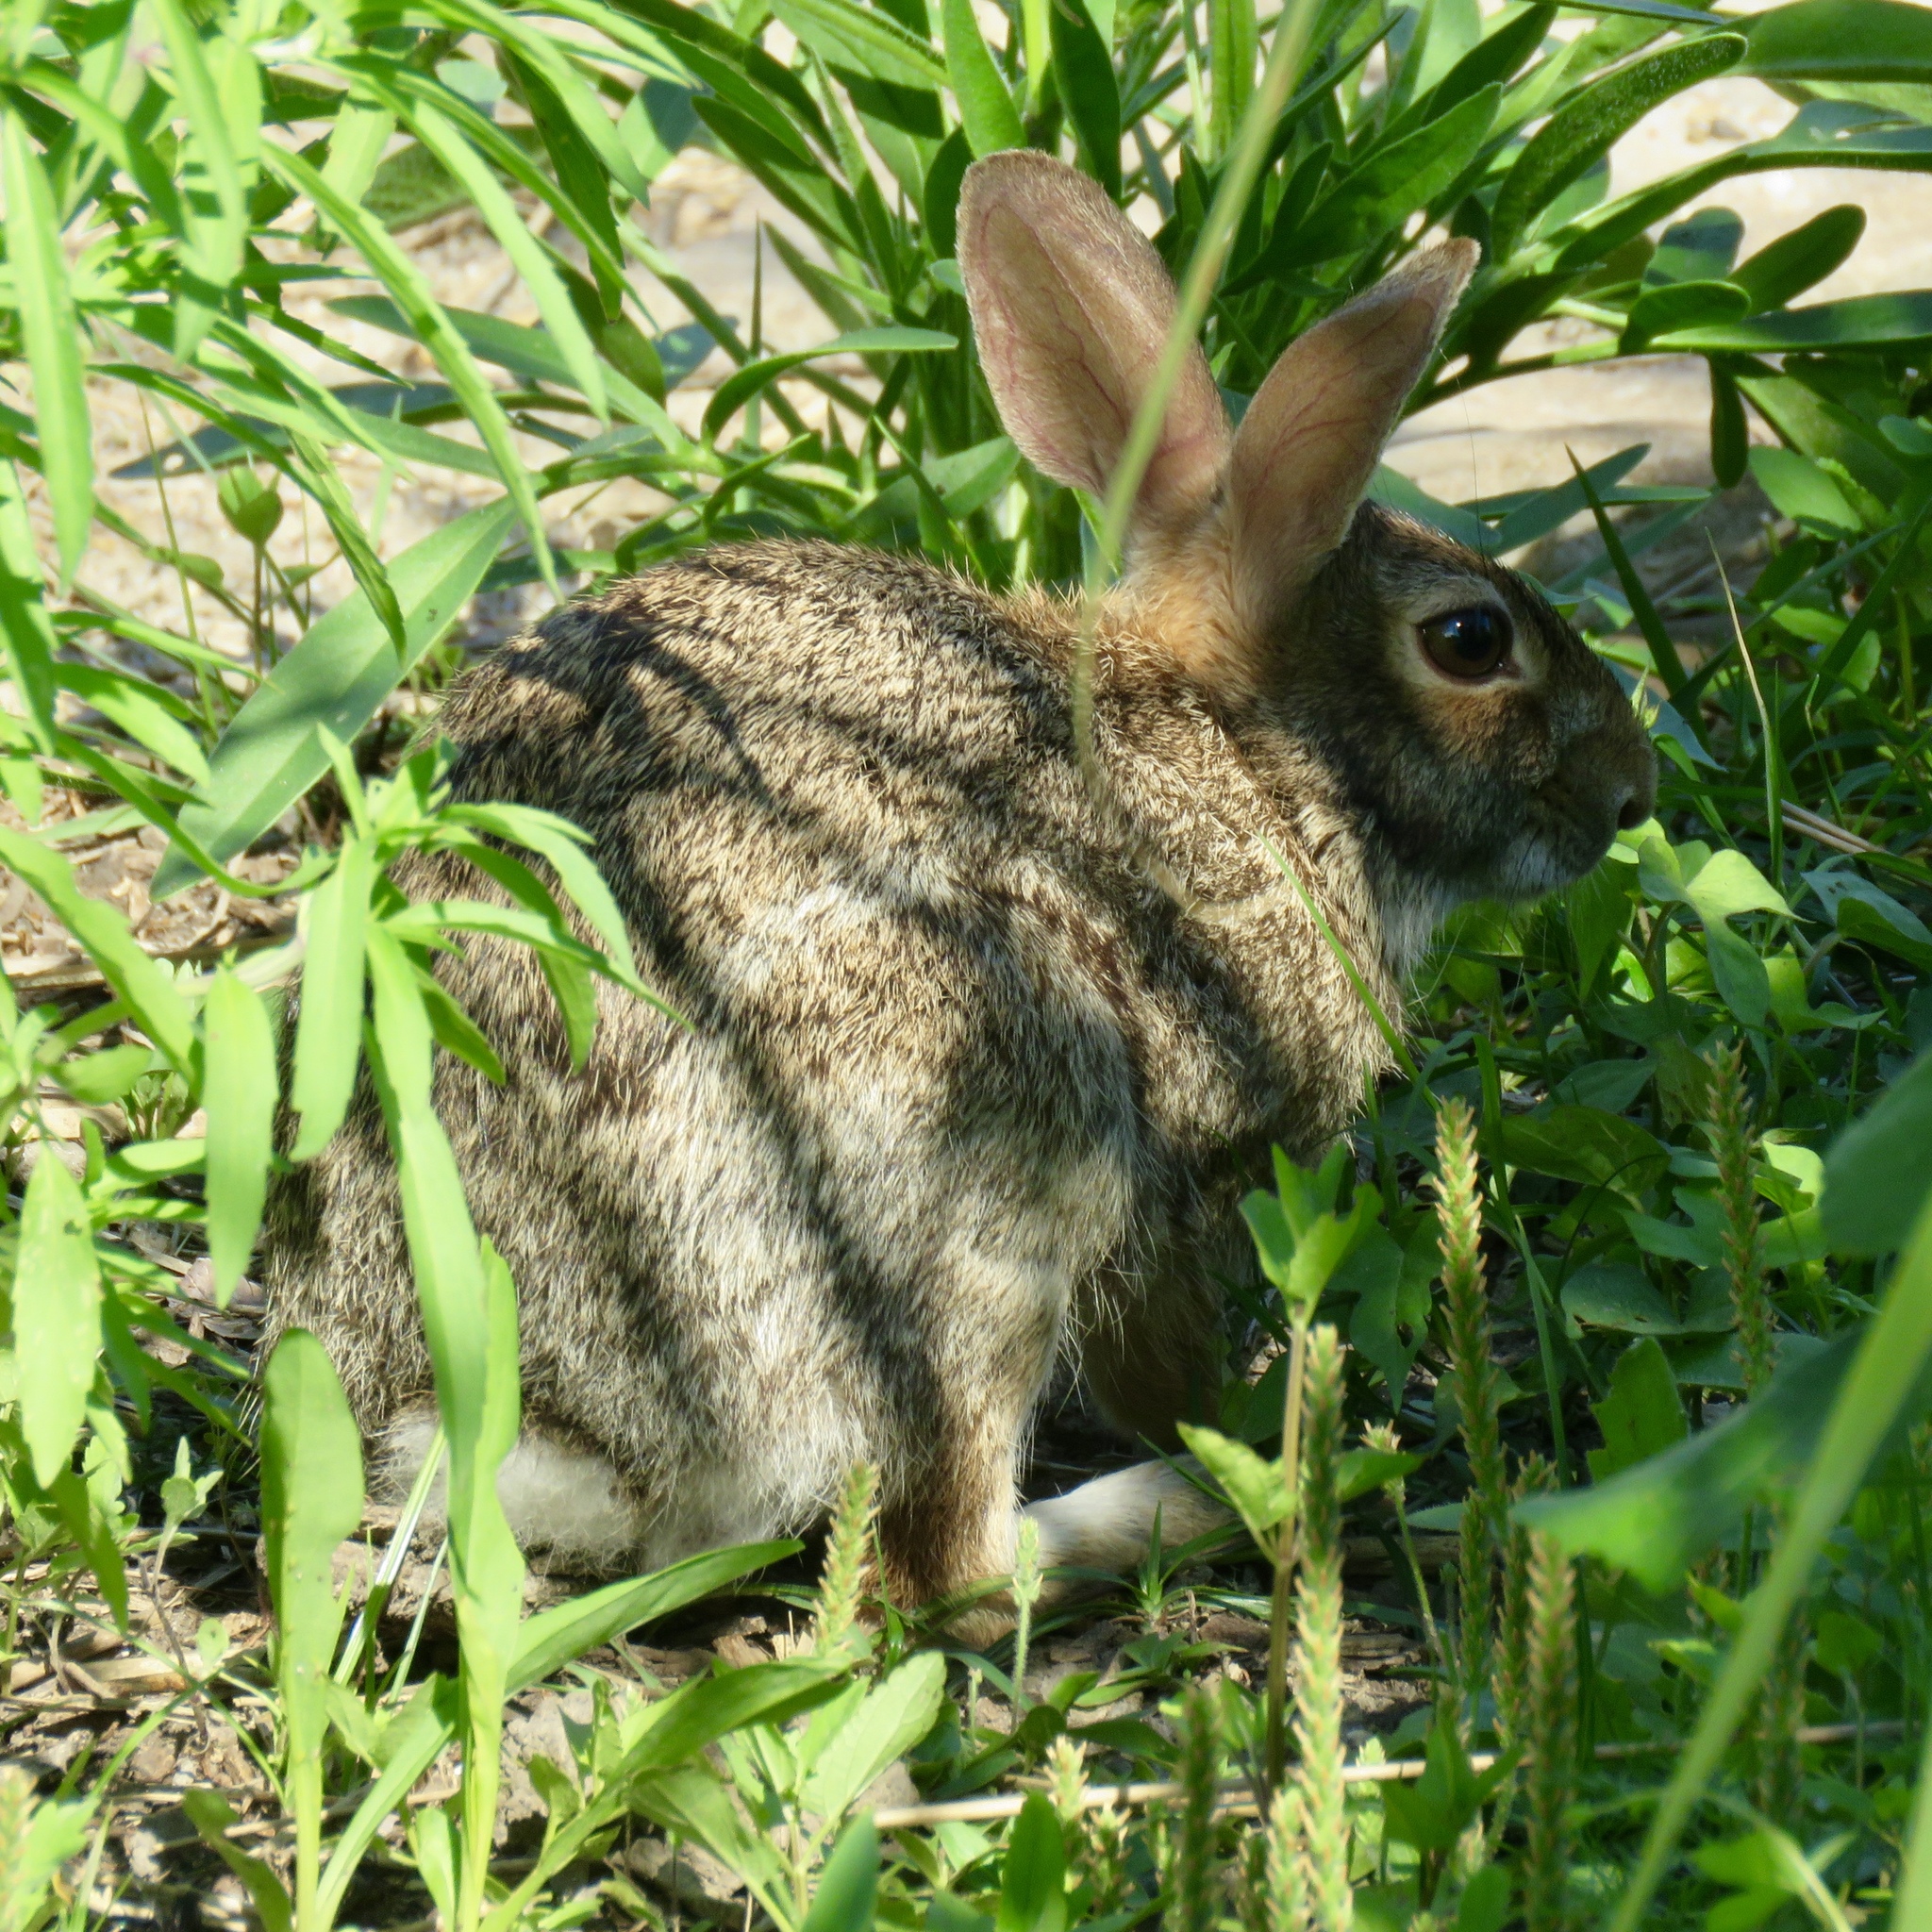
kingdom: Animalia
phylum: Chordata
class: Mammalia
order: Lagomorpha
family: Leporidae
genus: Sylvilagus
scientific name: Sylvilagus floridanus
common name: Eastern cottontail
